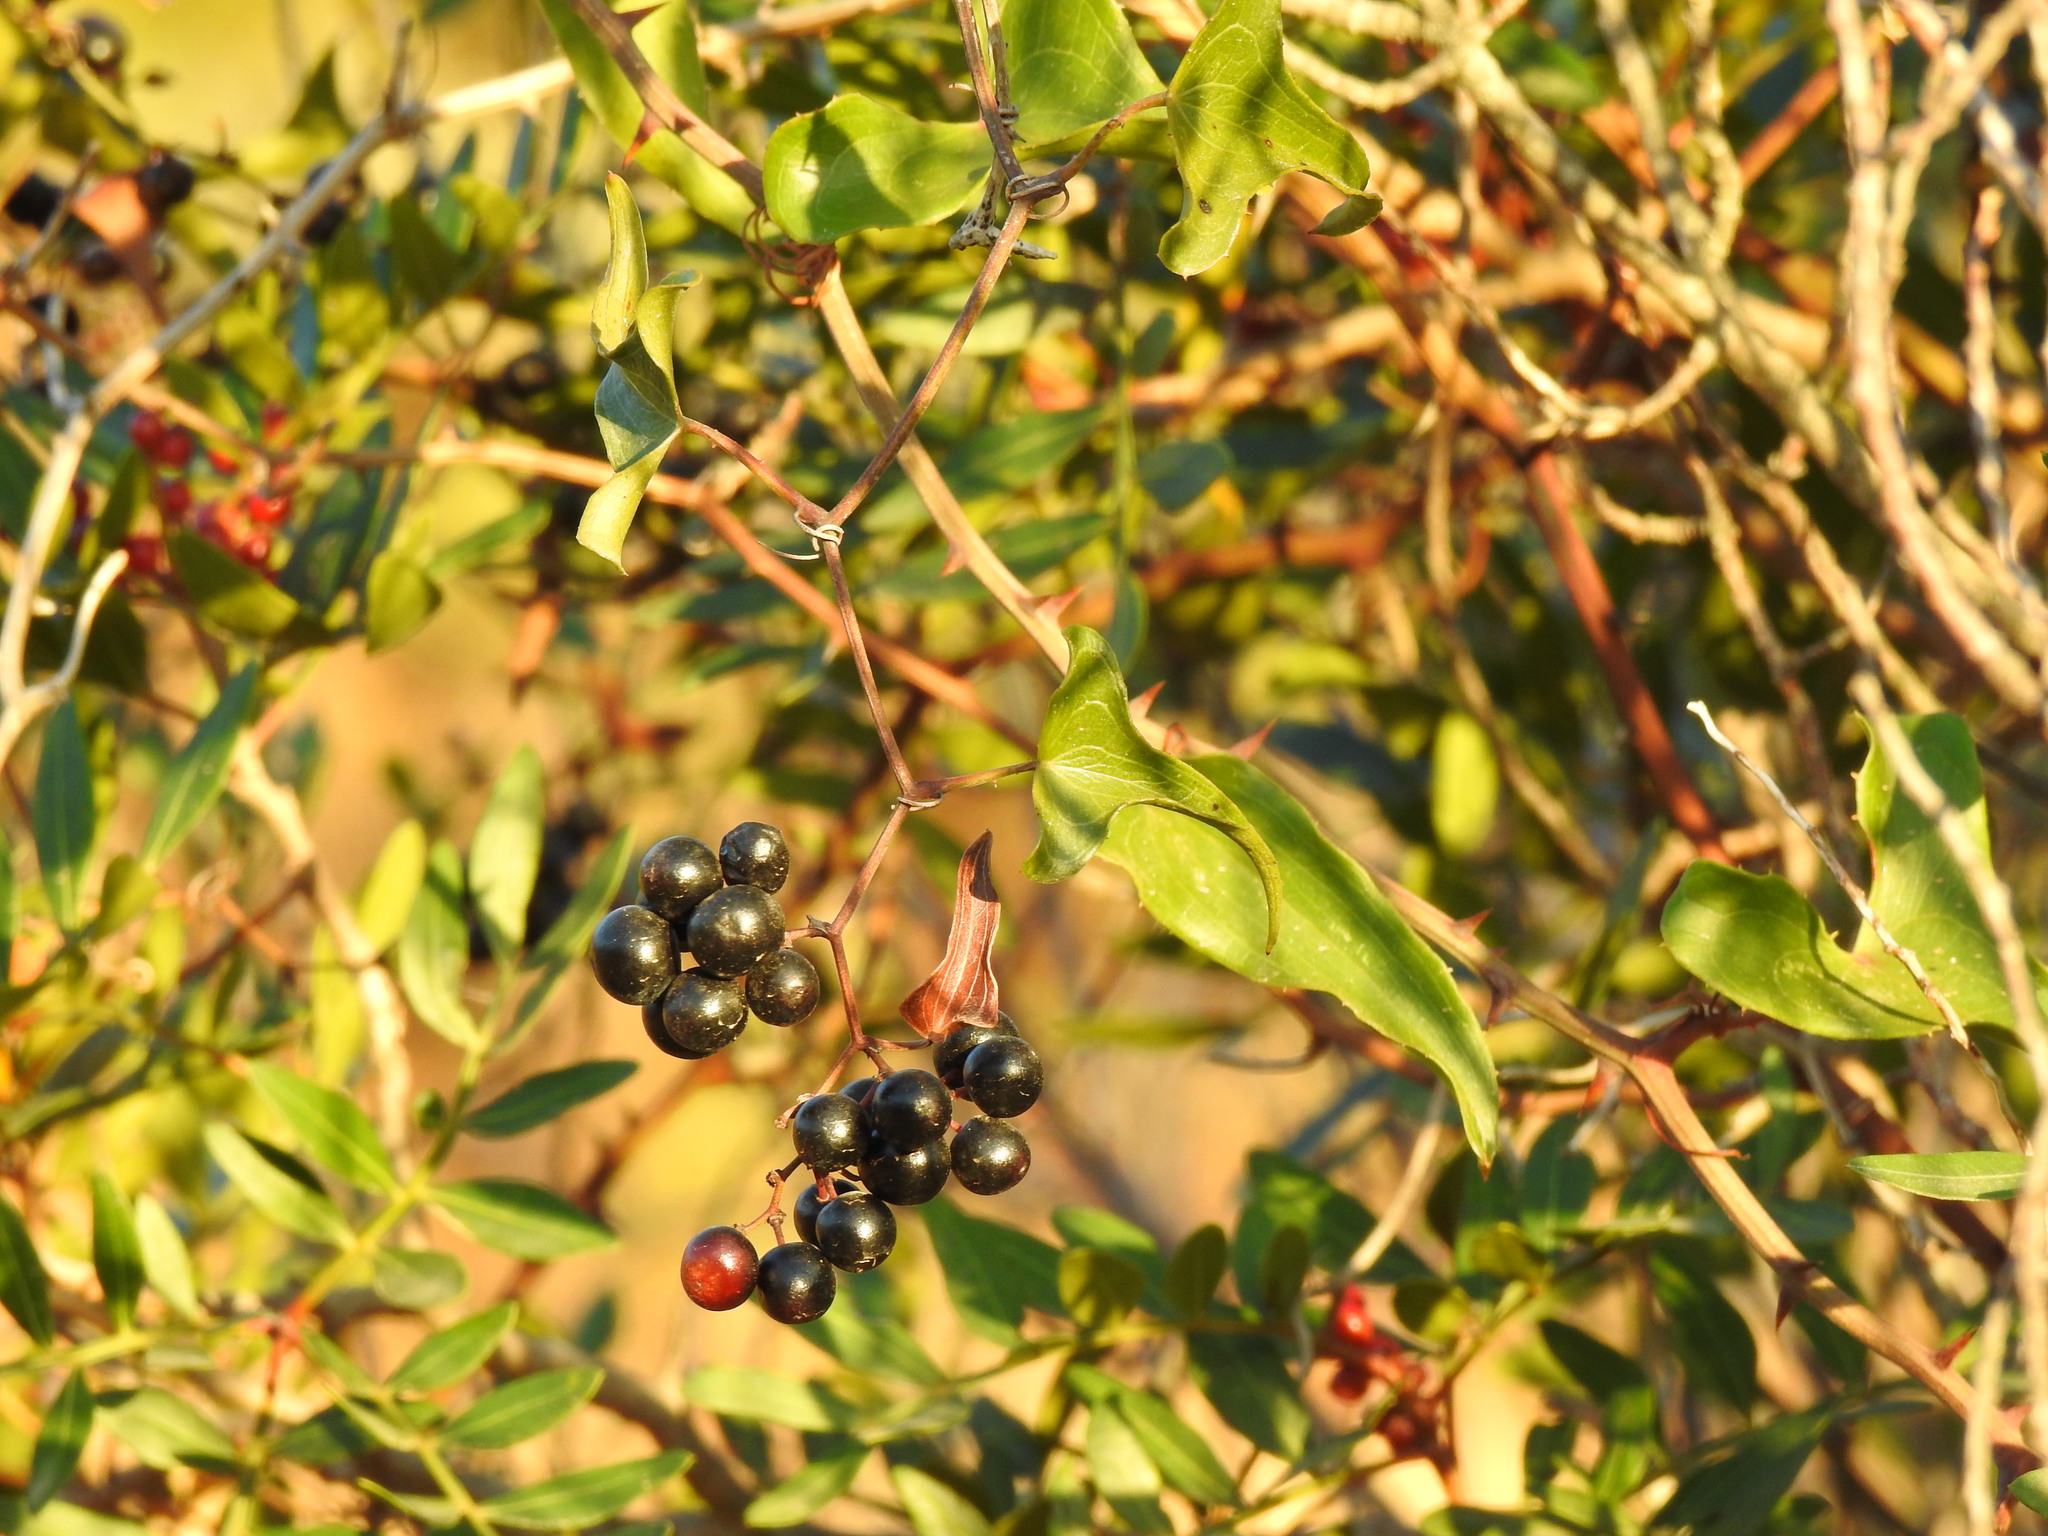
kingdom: Plantae
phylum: Tracheophyta
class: Liliopsida
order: Liliales
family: Smilacaceae
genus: Smilax
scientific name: Smilax aspera
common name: Common smilax
